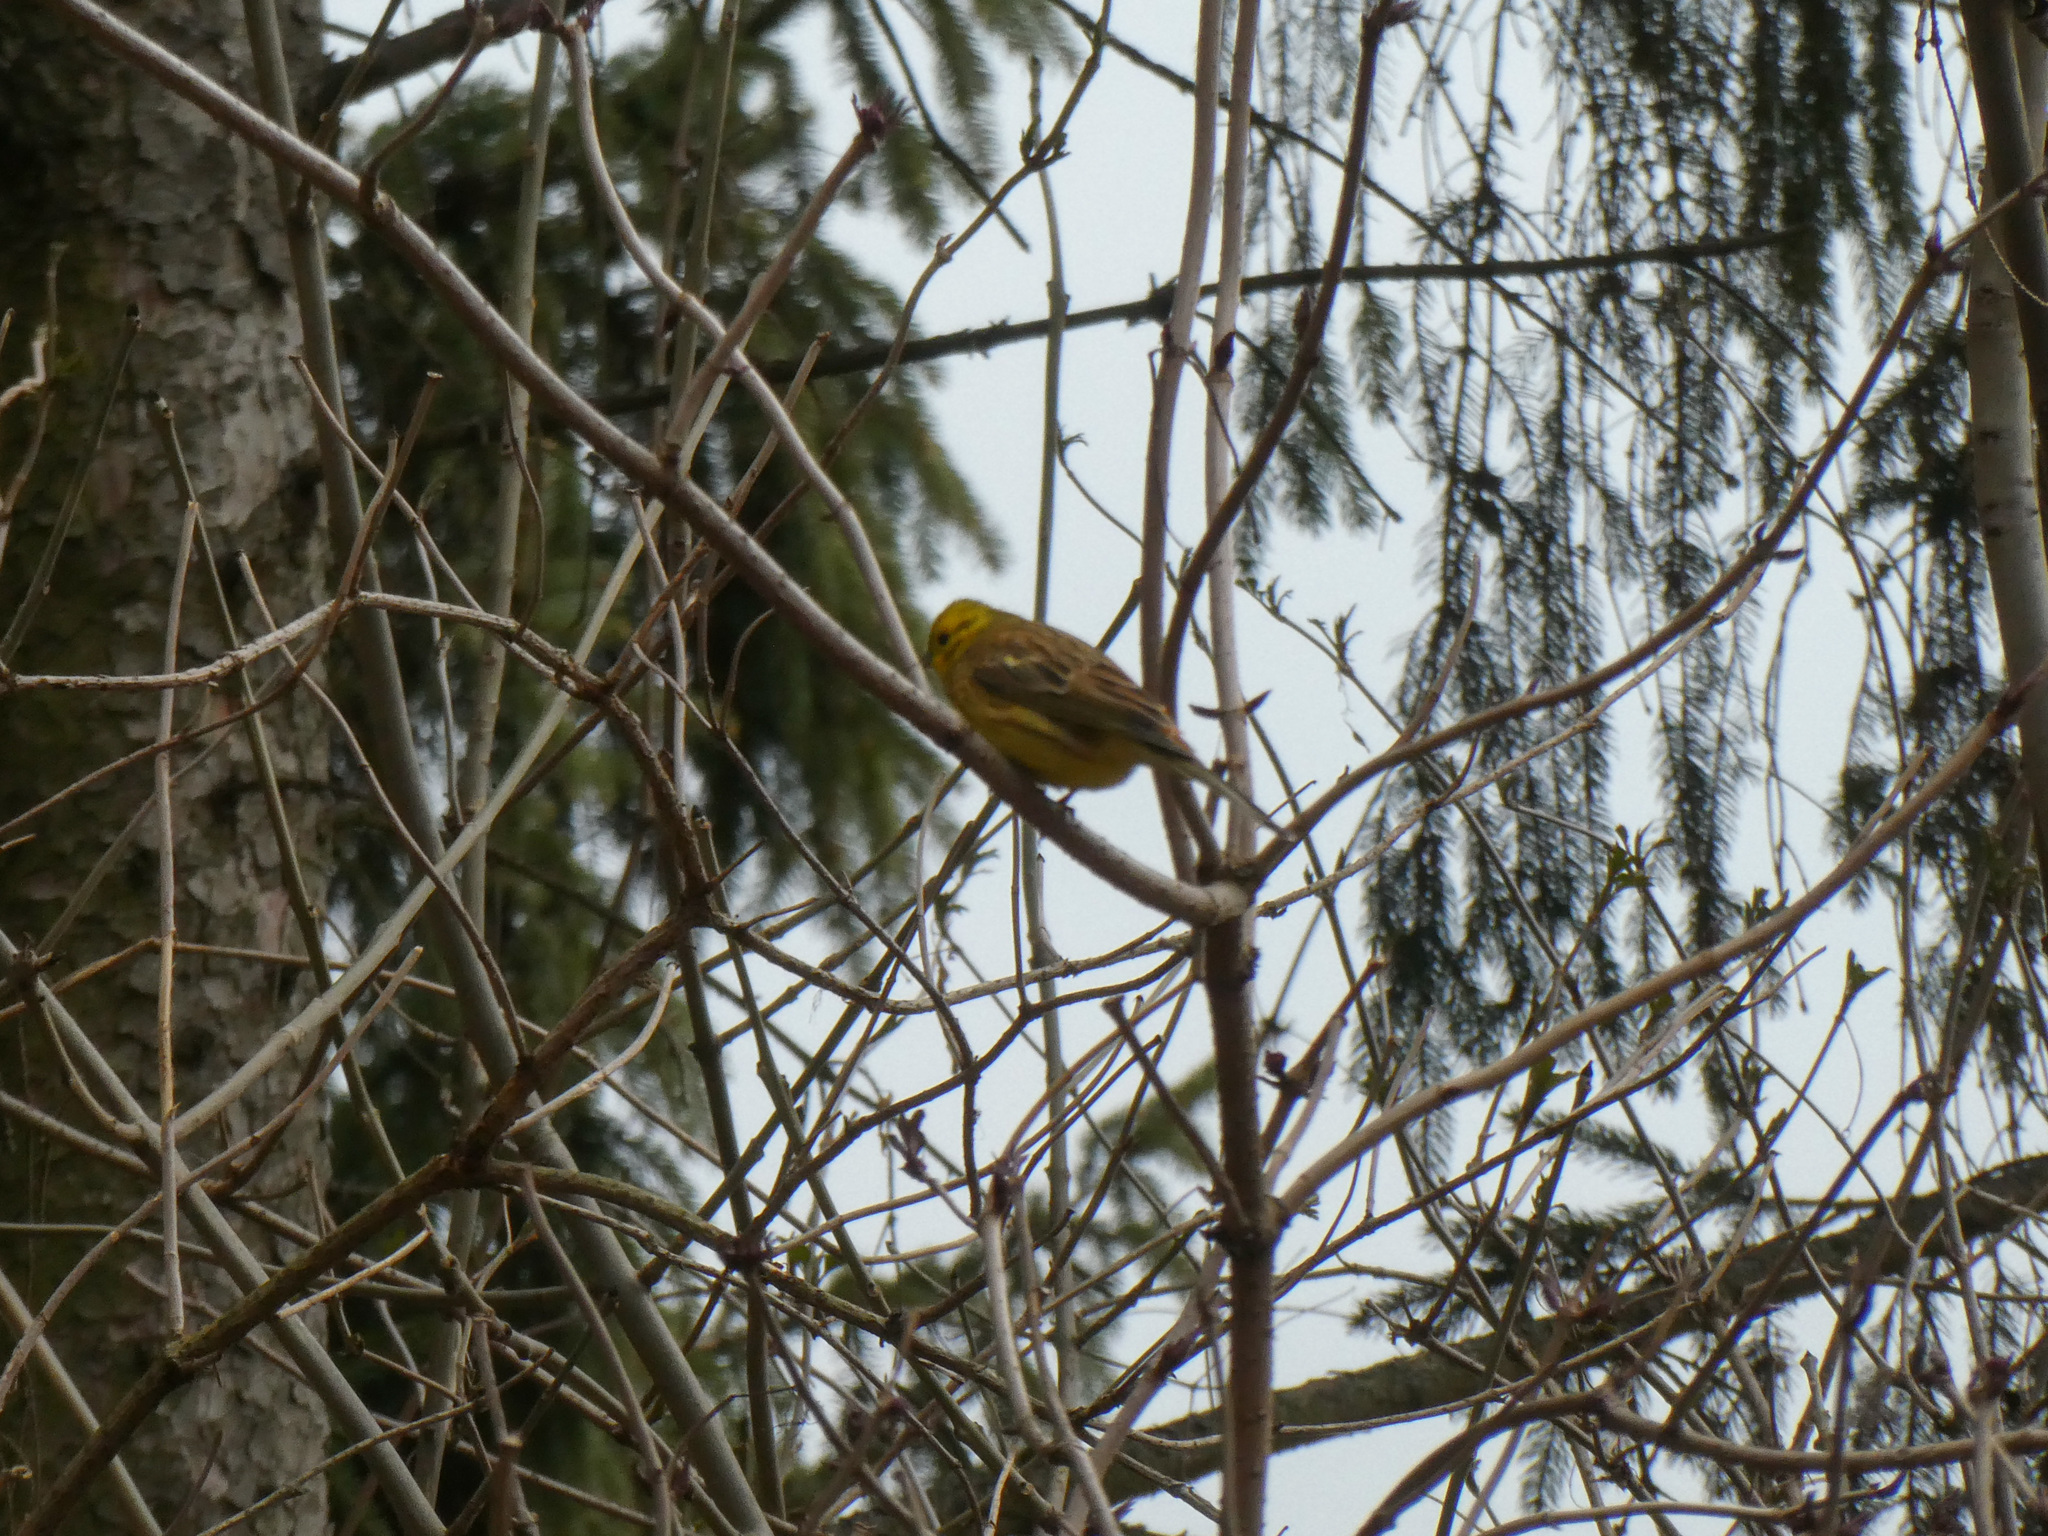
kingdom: Animalia
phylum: Chordata
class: Aves
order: Passeriformes
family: Emberizidae
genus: Emberiza
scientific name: Emberiza citrinella
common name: Yellowhammer
